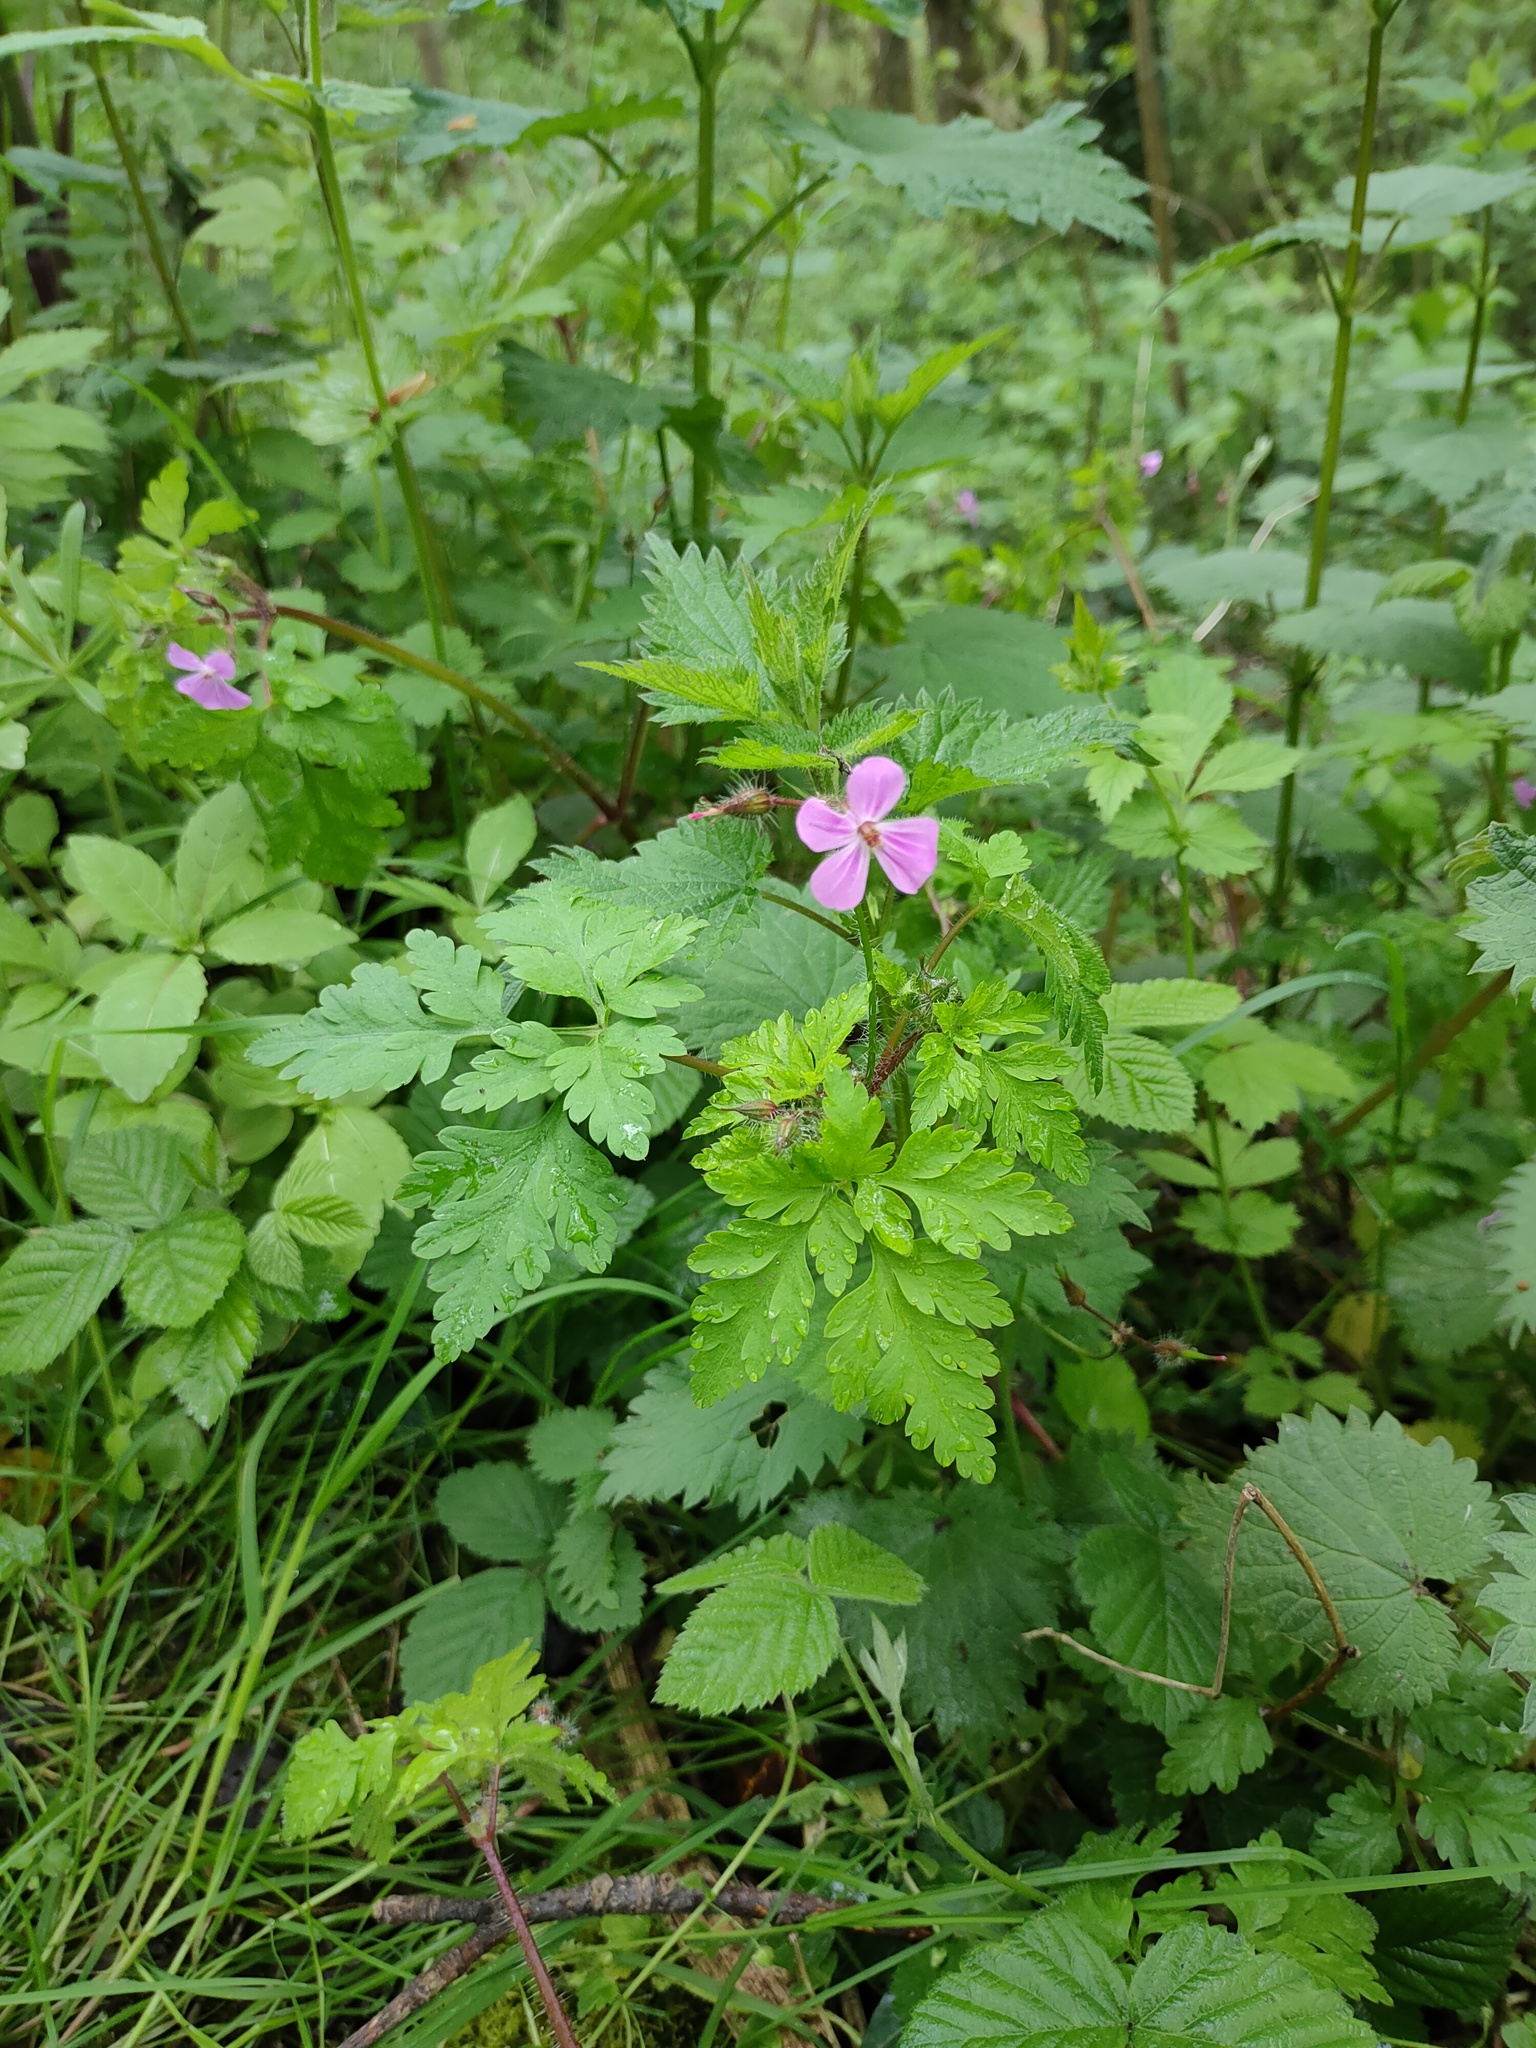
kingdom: Plantae
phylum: Tracheophyta
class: Magnoliopsida
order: Geraniales
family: Geraniaceae
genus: Geranium
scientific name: Geranium robertianum
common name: Herb-robert
